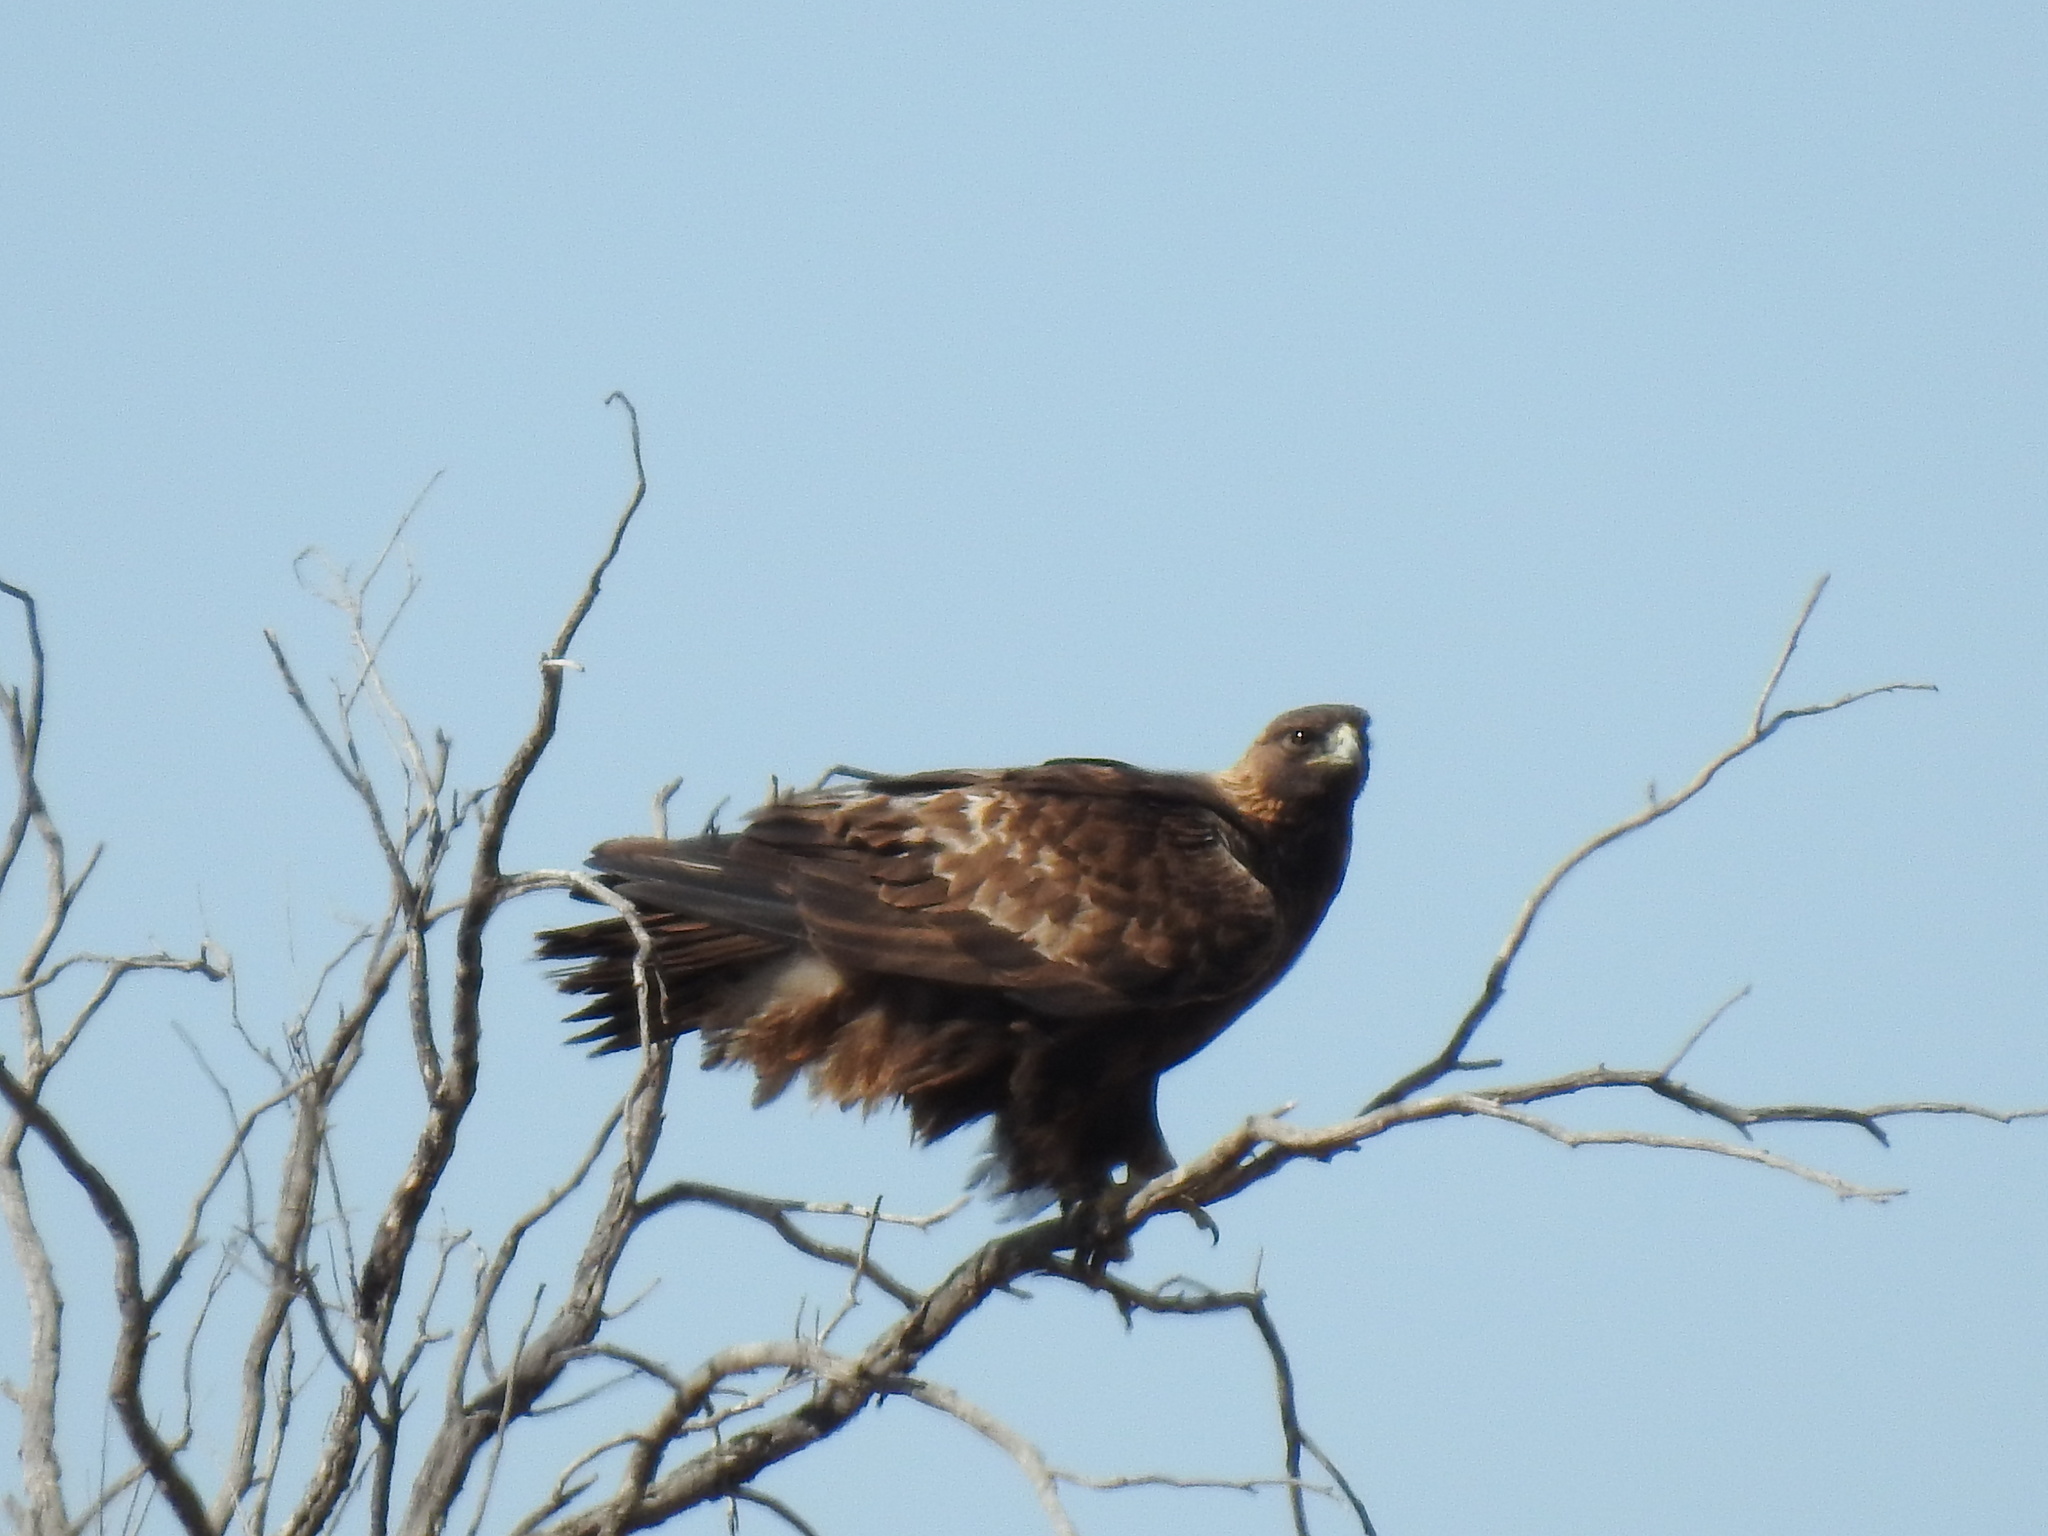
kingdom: Animalia
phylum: Chordata
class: Aves
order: Accipitriformes
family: Accipitridae
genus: Aquila
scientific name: Aquila chrysaetos
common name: Golden eagle
